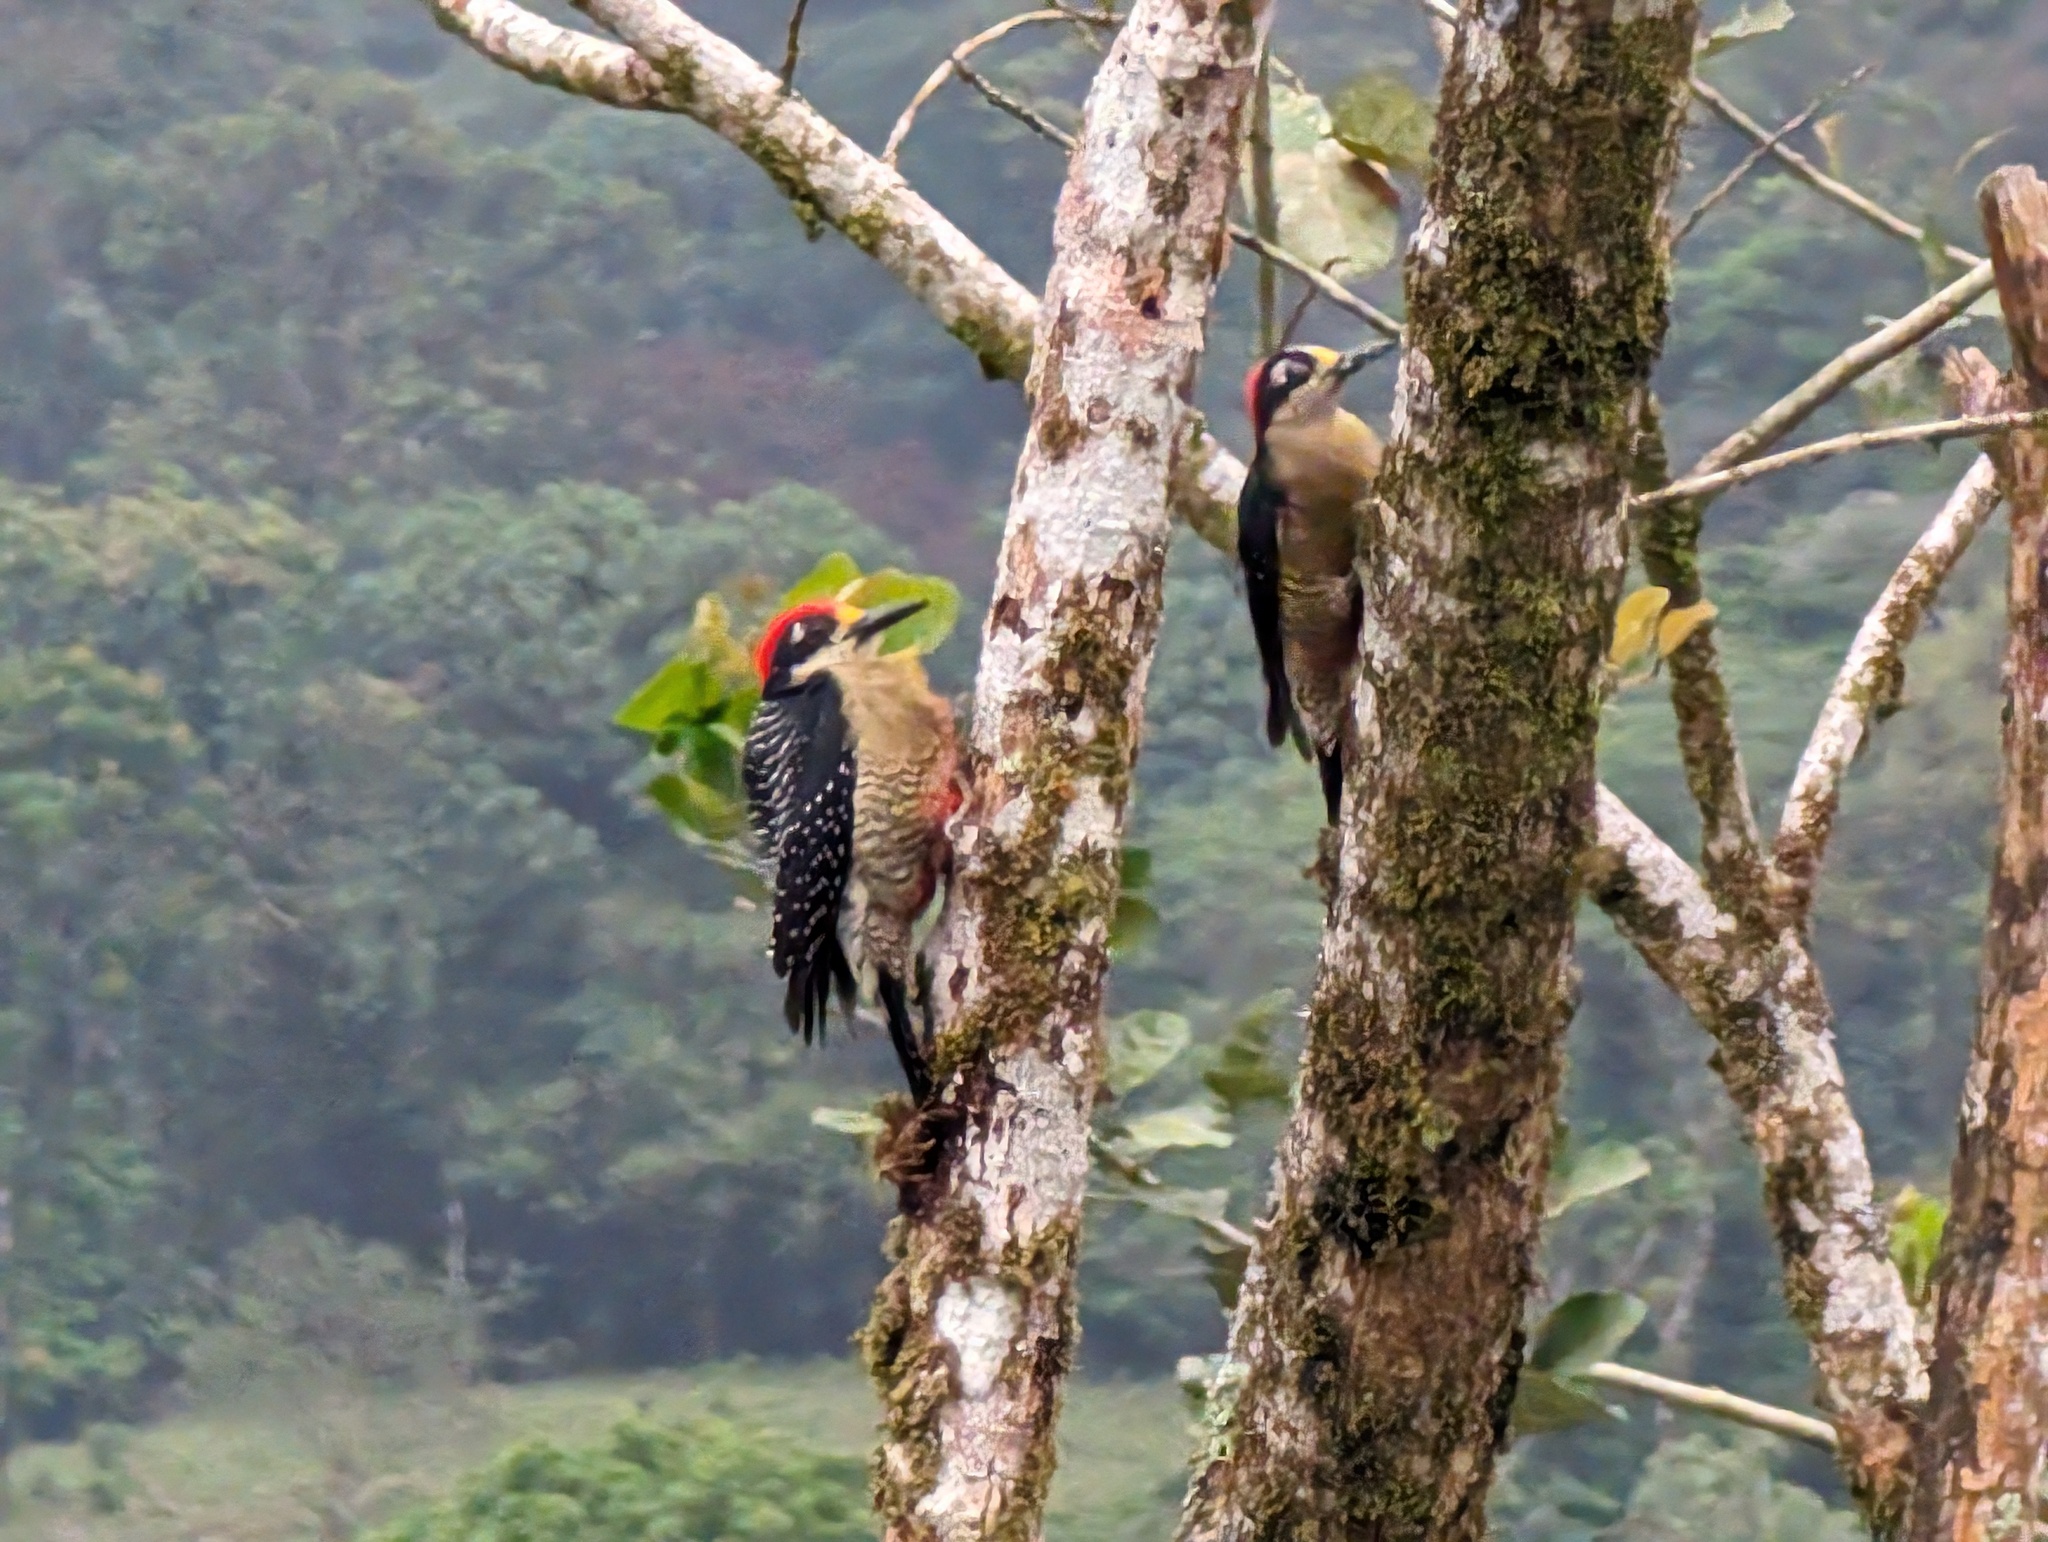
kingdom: Animalia
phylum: Chordata
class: Aves
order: Piciformes
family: Picidae
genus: Melanerpes
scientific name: Melanerpes pucherani
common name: Black-cheeked woodpecker
